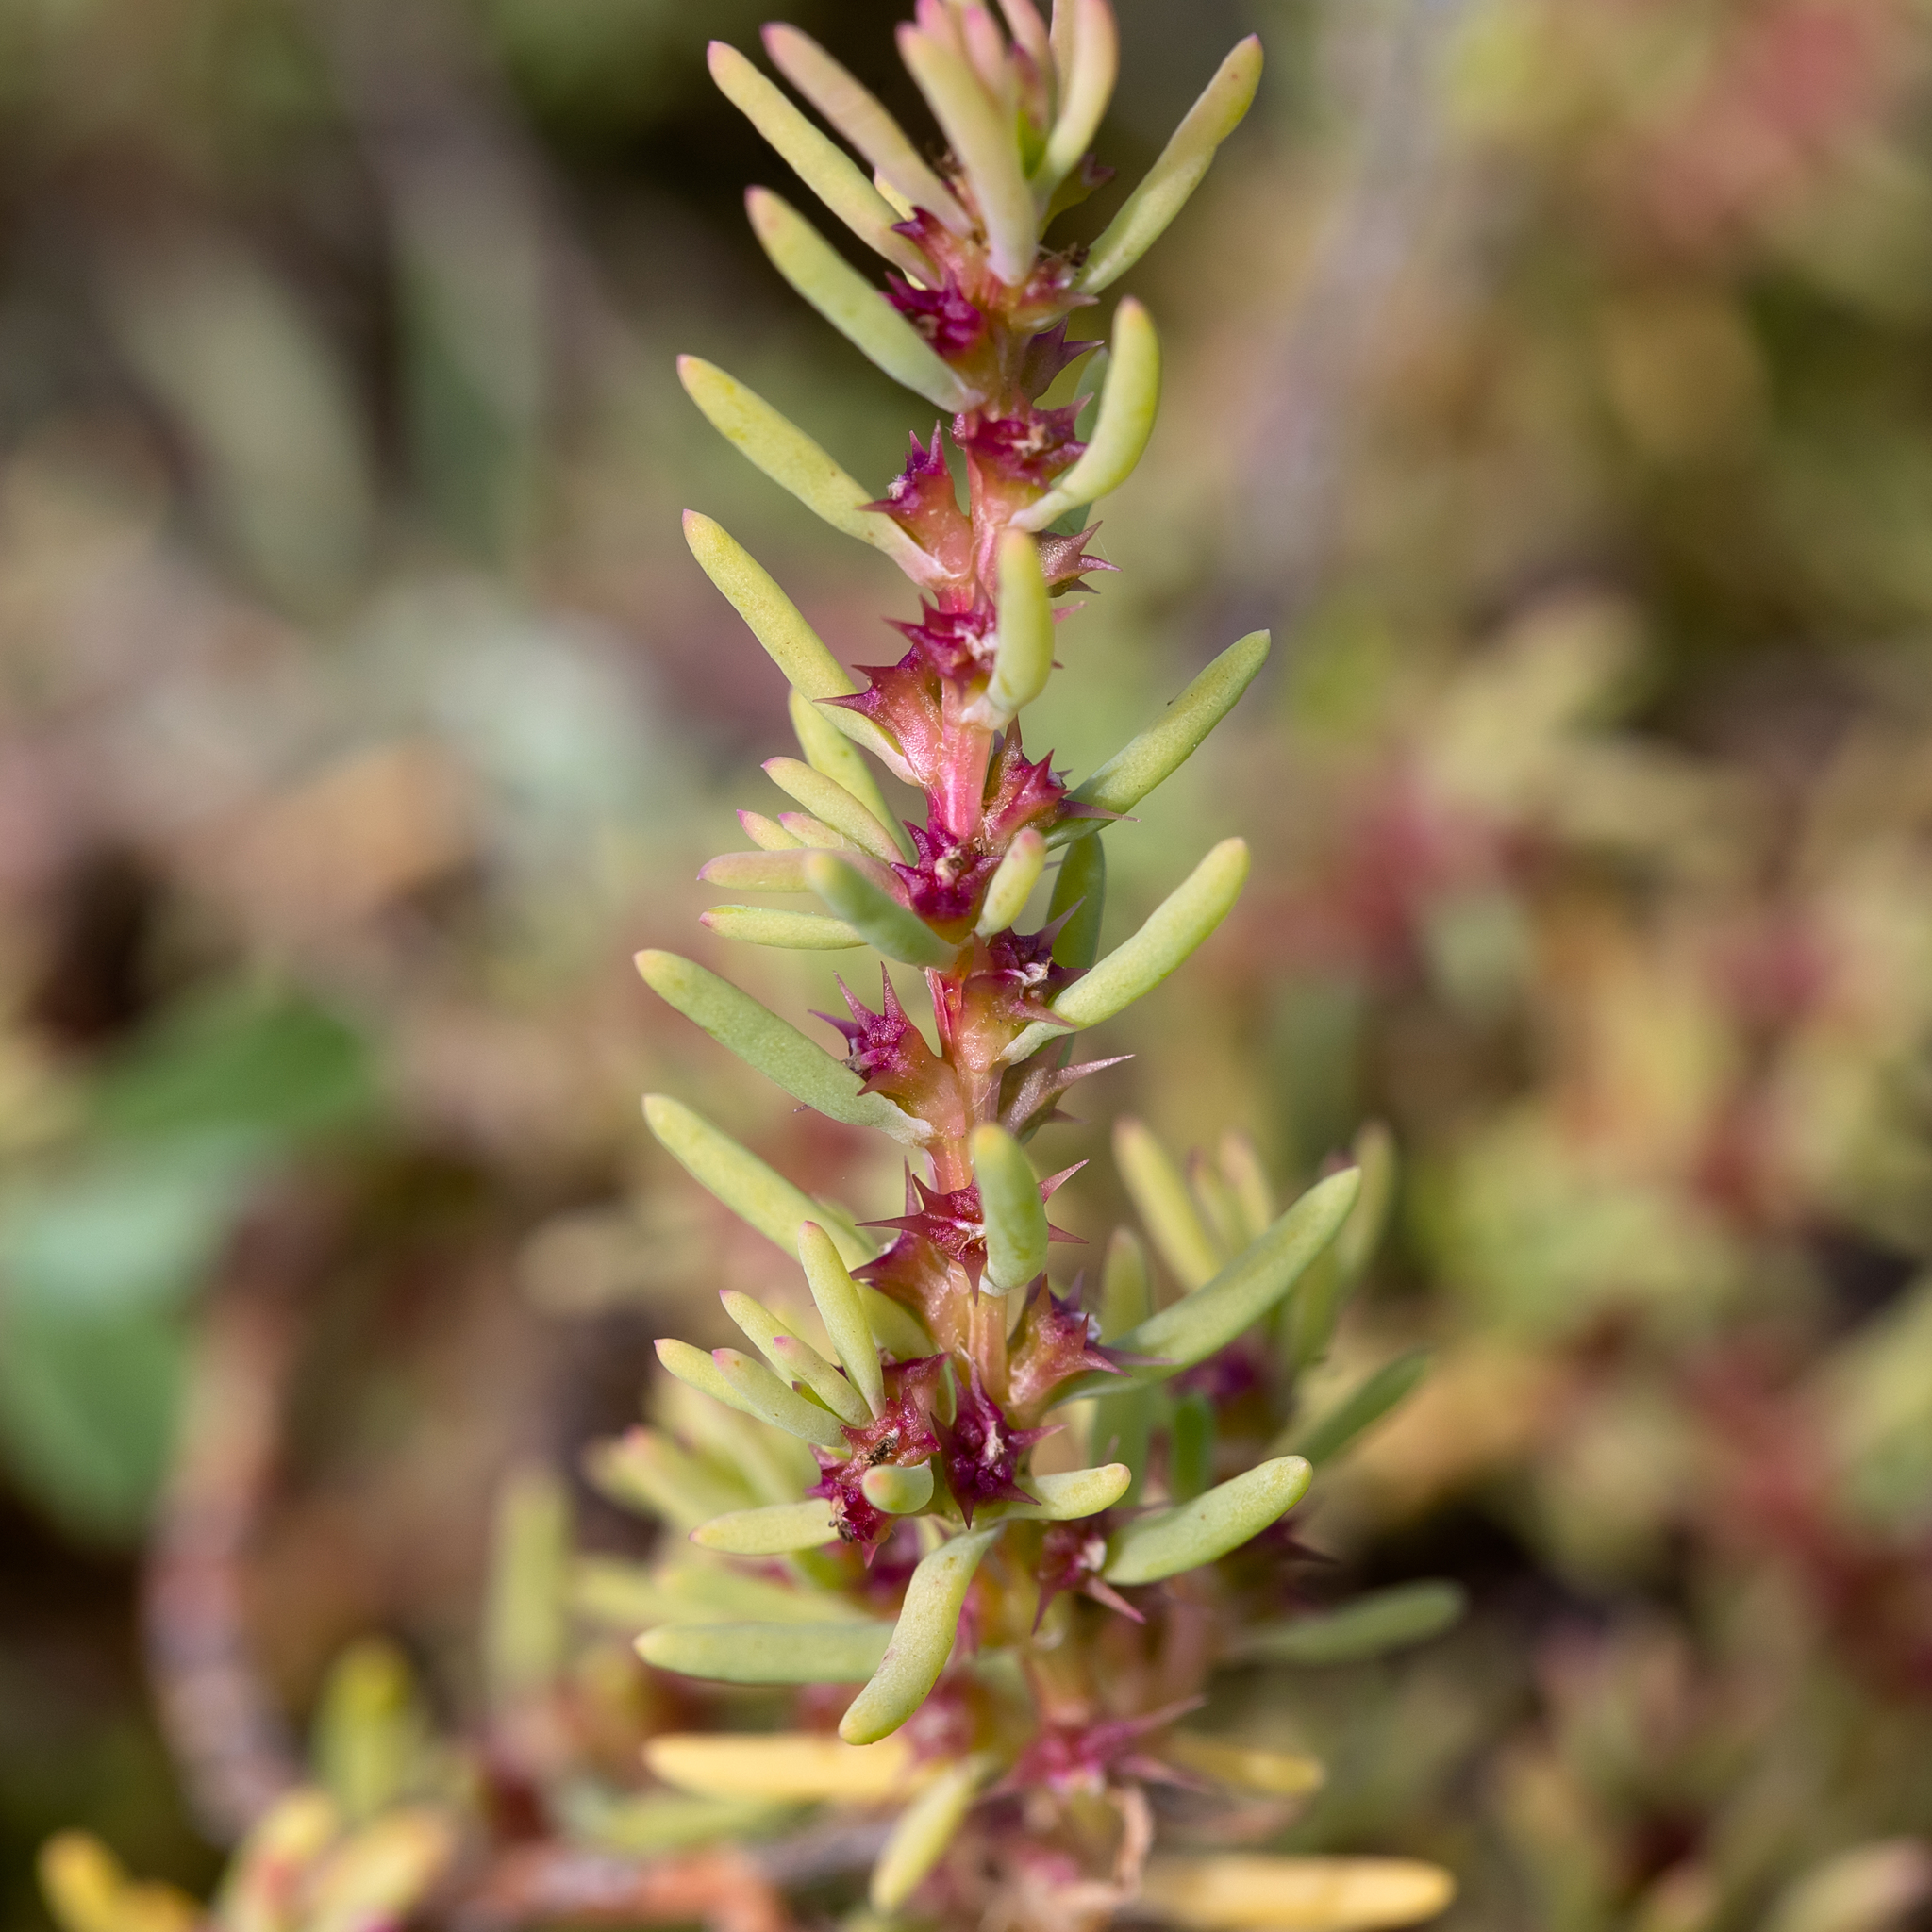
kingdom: Plantae
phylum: Tracheophyta
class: Magnoliopsida
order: Caryophyllales
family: Amaranthaceae
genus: Sclerolaena
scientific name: Sclerolaena calcarata
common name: Red copperbur
